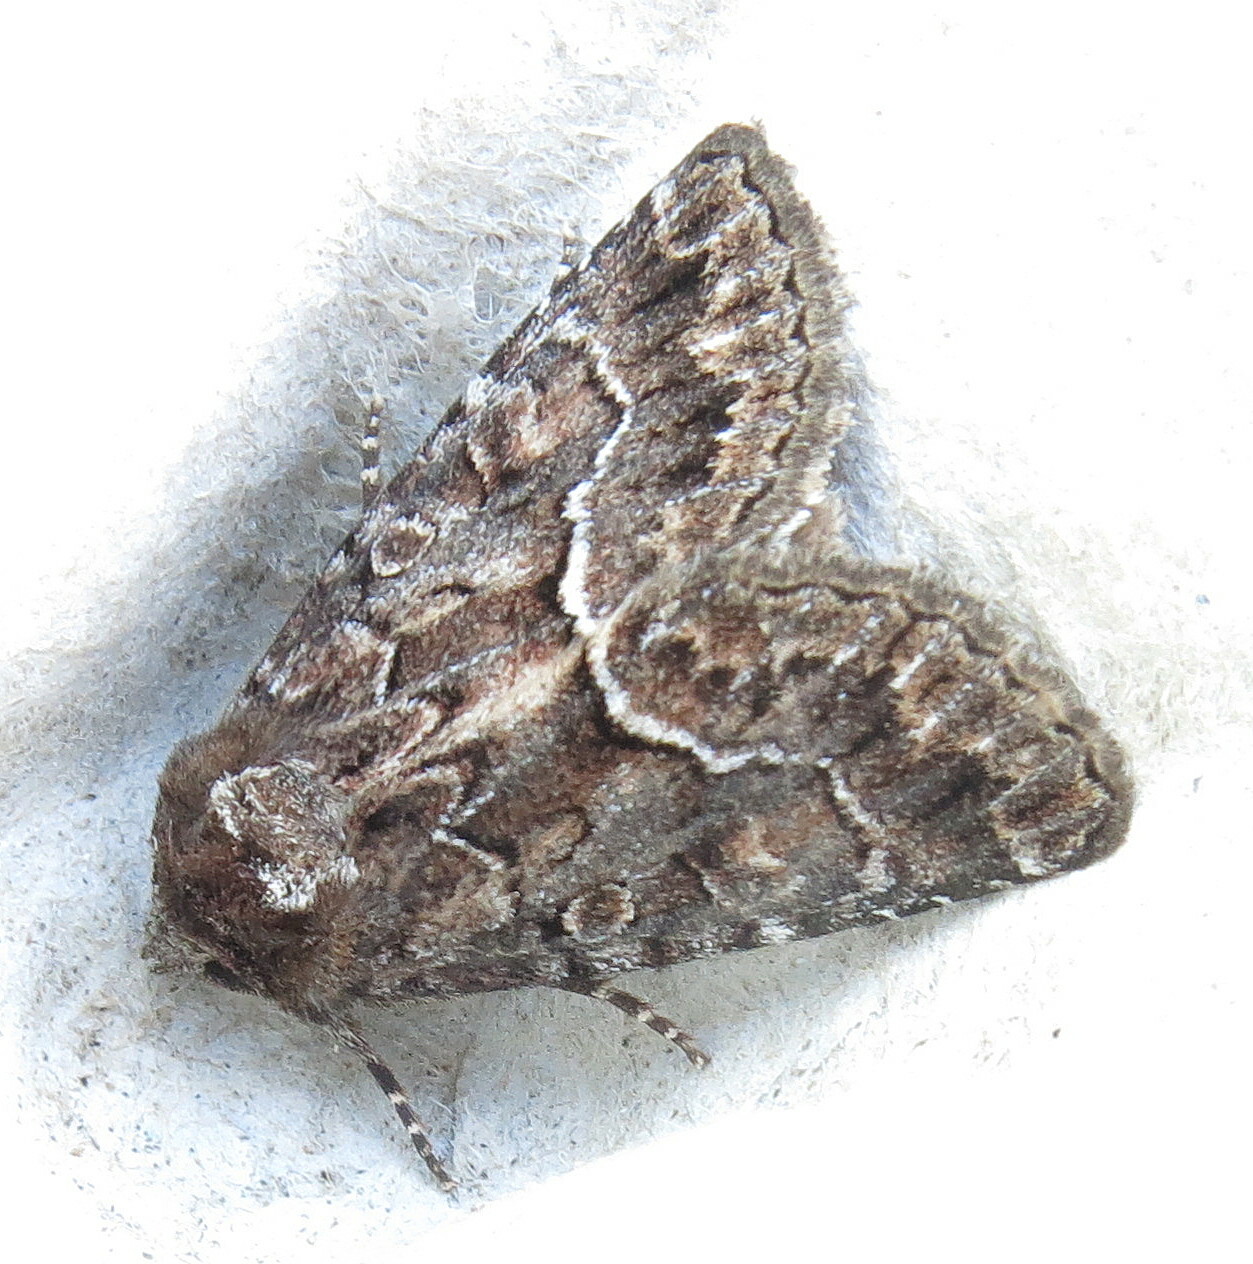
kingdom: Animalia
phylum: Arthropoda
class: Insecta
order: Lepidoptera
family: Noctuidae
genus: Thalpophila
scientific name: Thalpophila matura
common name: Straw underwing
